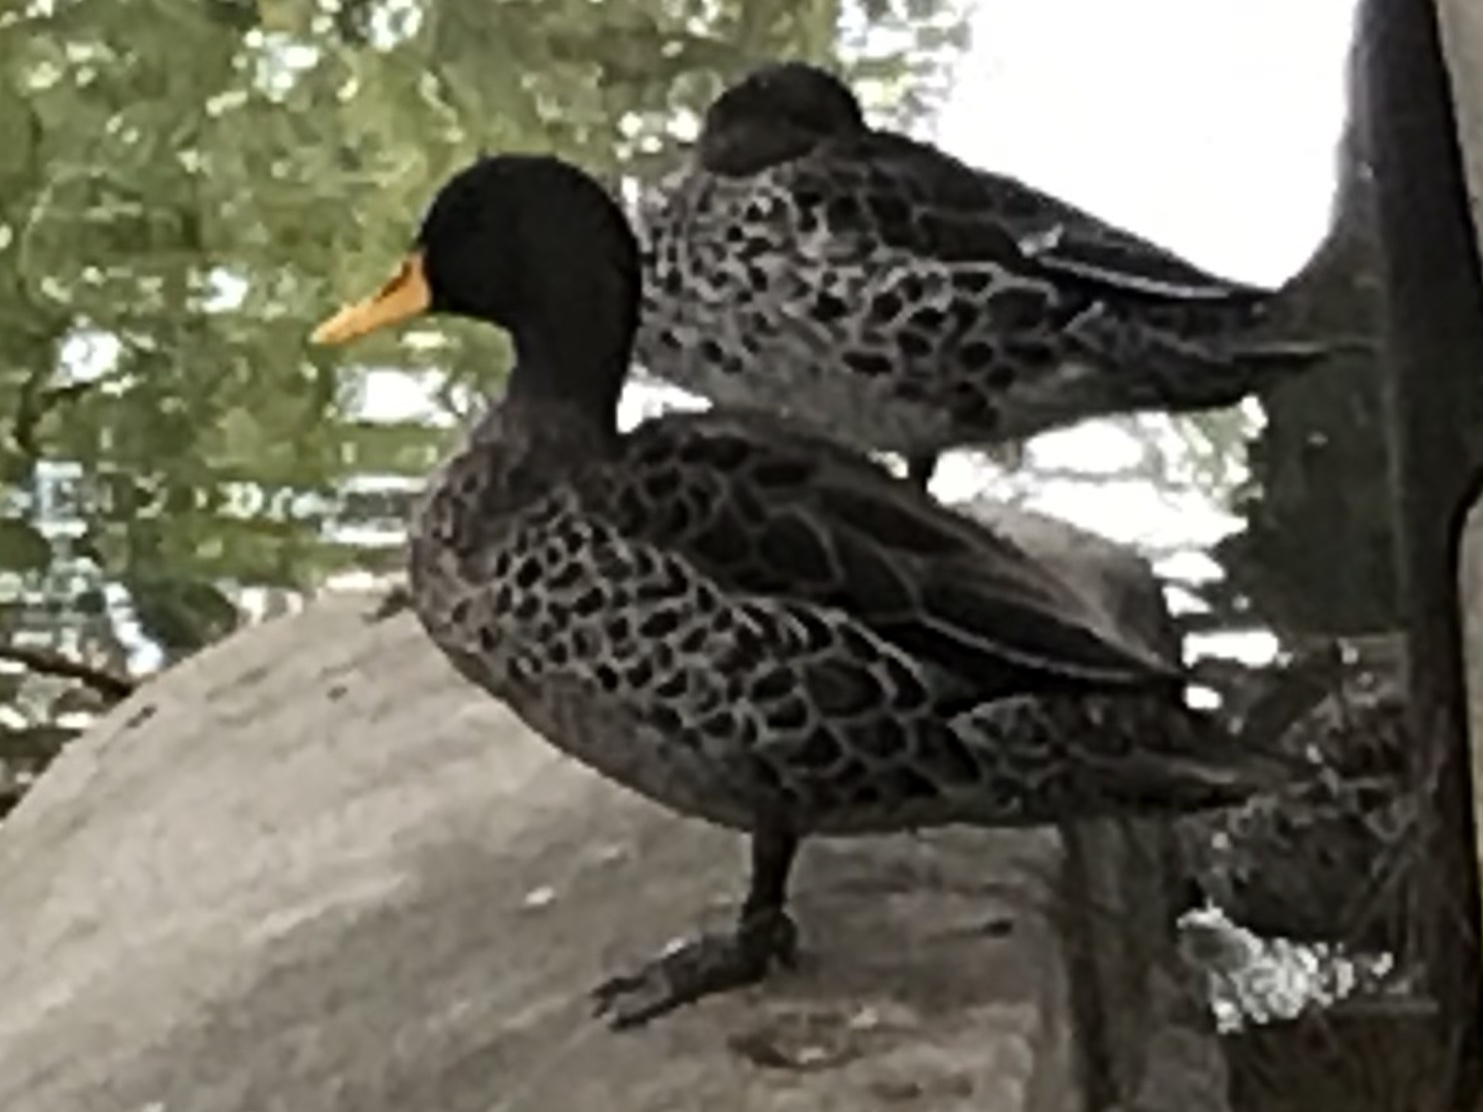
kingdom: Animalia
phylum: Chordata
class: Aves
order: Anseriformes
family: Anatidae
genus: Anas
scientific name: Anas undulata
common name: Yellow-billed duck
